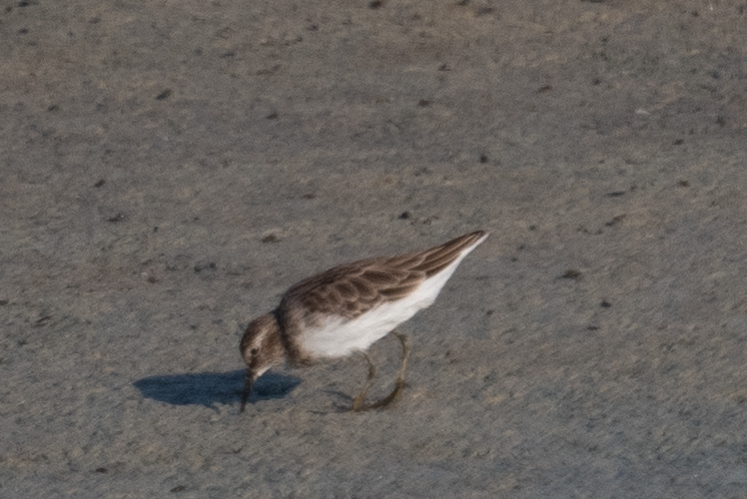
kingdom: Animalia
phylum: Chordata
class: Aves
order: Charadriiformes
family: Scolopacidae
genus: Calidris
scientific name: Calidris minutilla
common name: Least sandpiper
